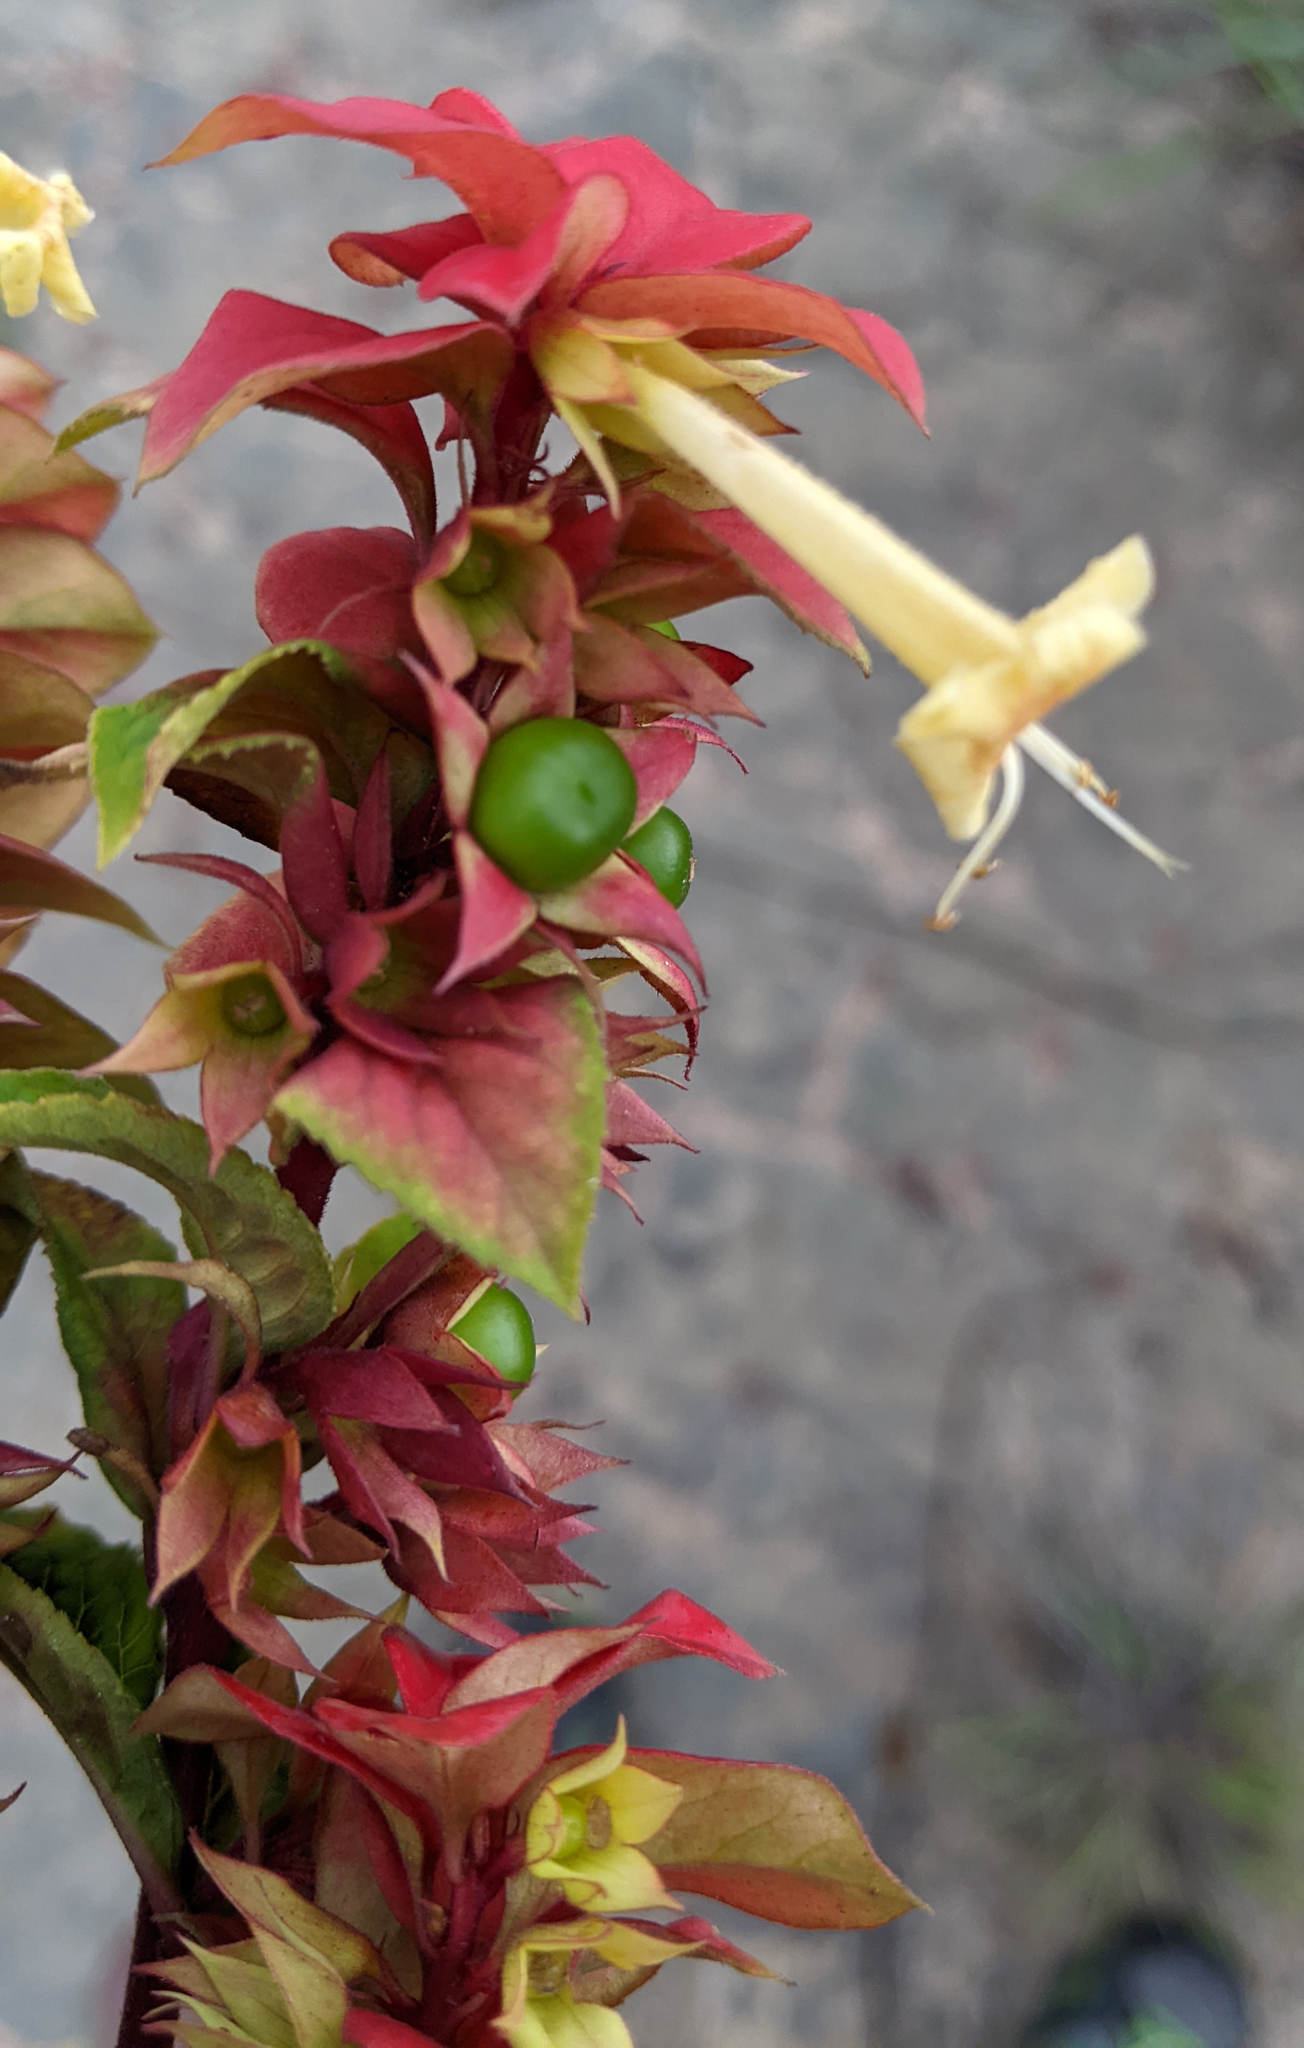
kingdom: Plantae
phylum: Tracheophyta
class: Magnoliopsida
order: Lamiales
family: Lamiaceae
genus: Amasonia
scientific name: Amasonia campestris
